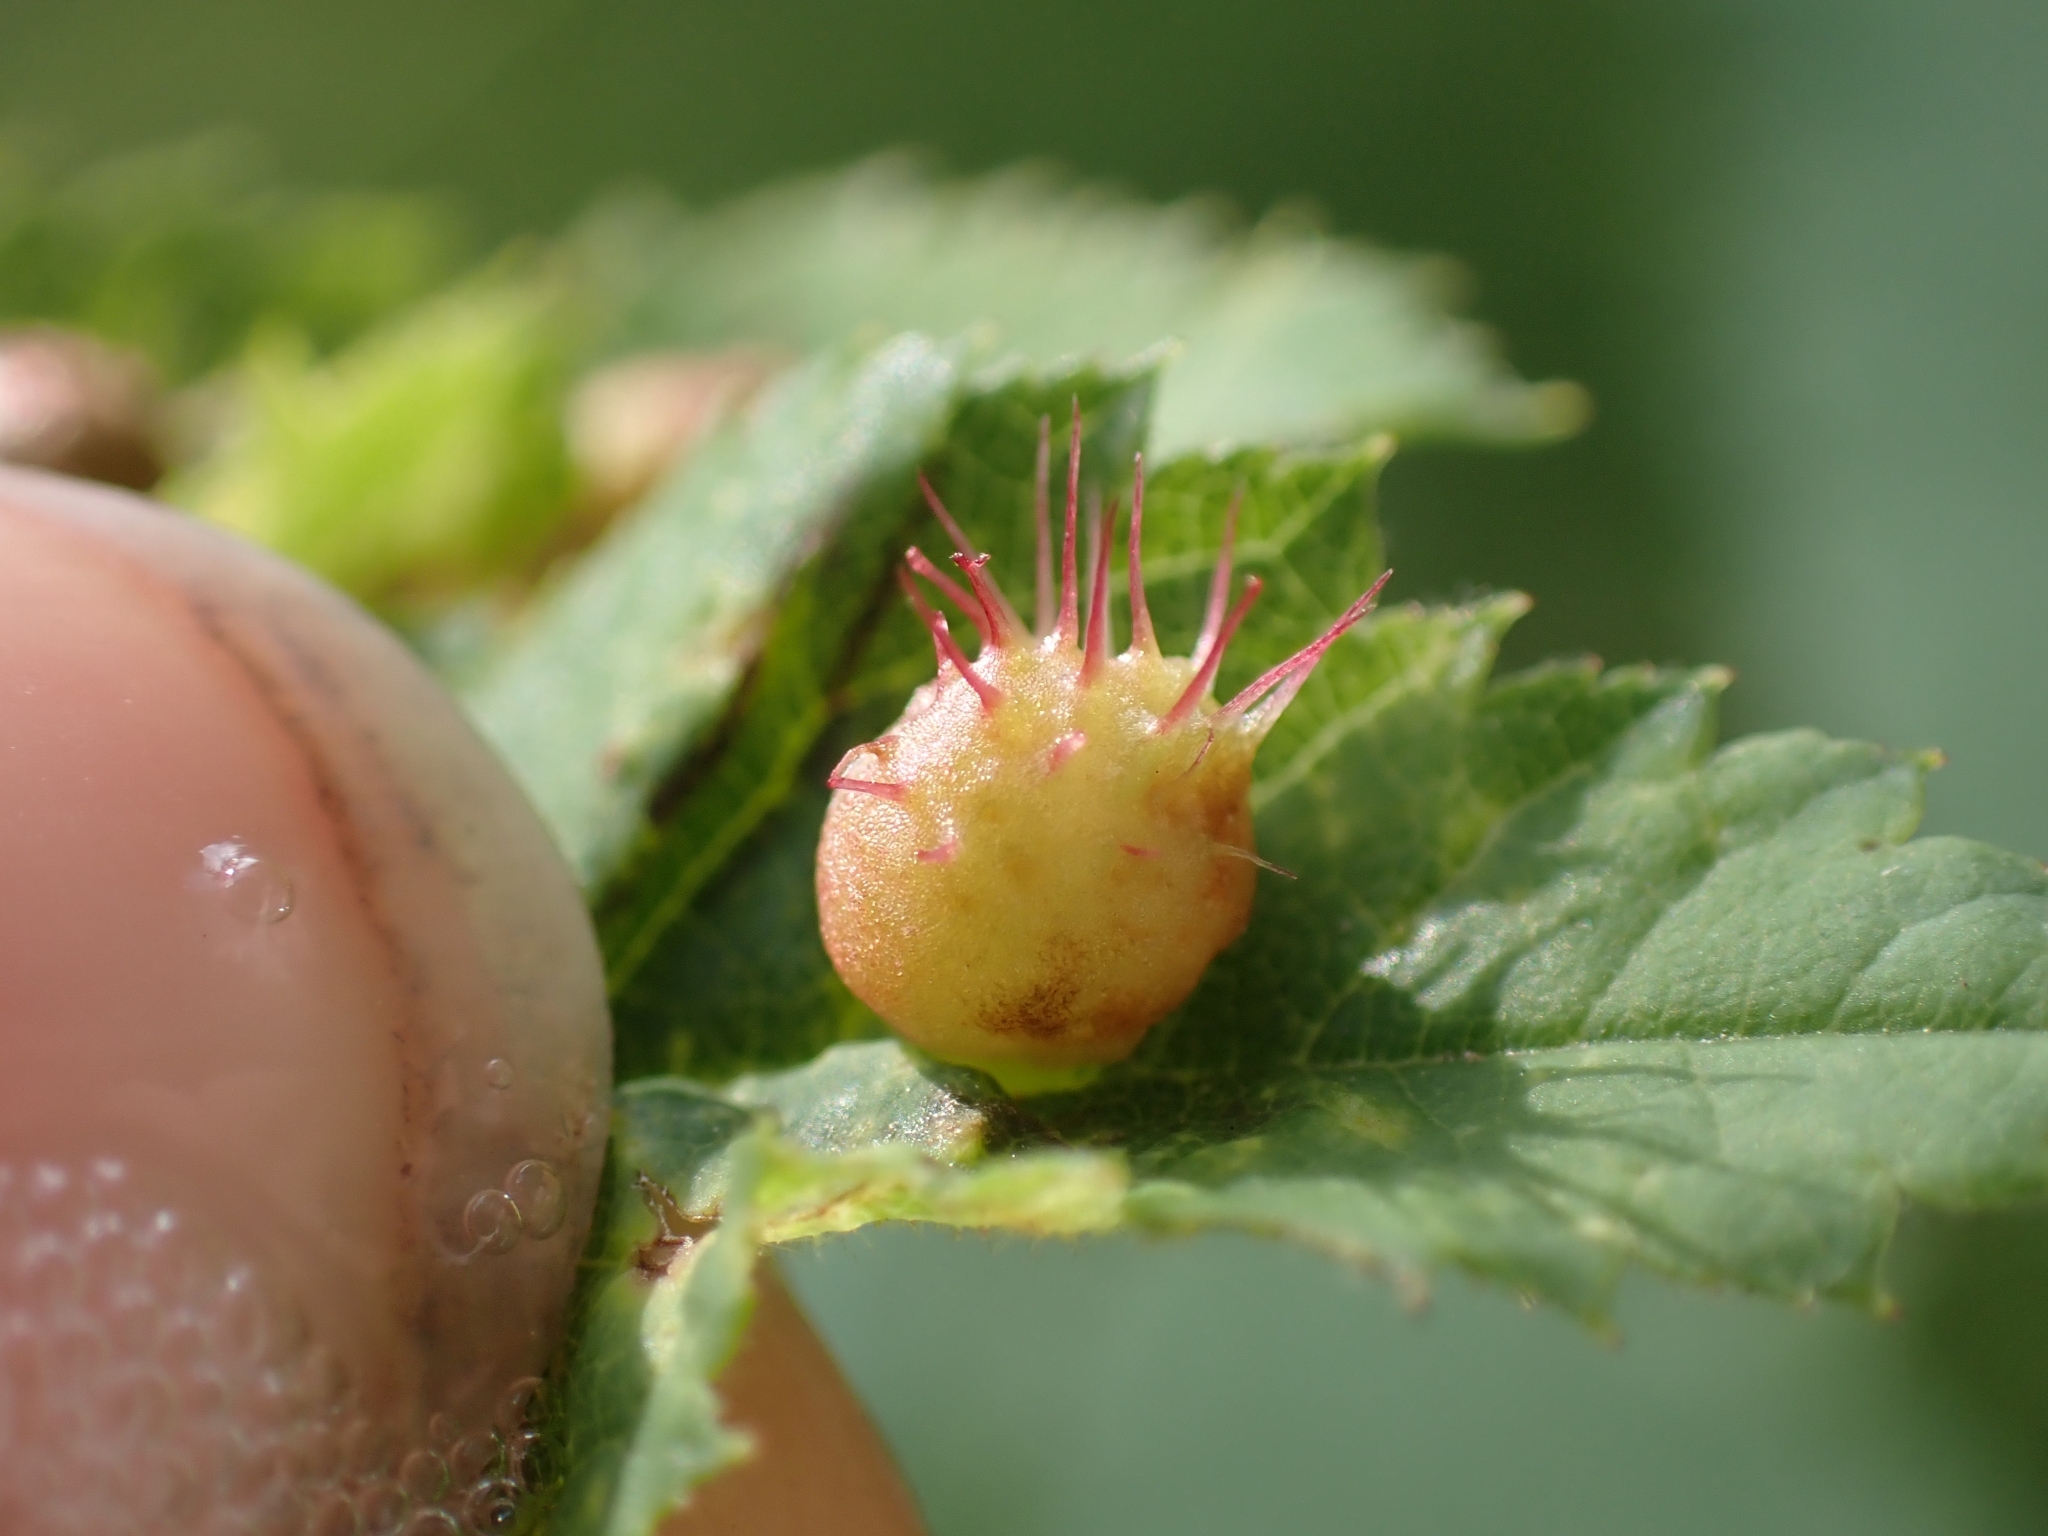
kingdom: Animalia
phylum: Arthropoda
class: Insecta
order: Hymenoptera
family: Cynipidae
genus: Diplolepis
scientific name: Diplolepis polita
